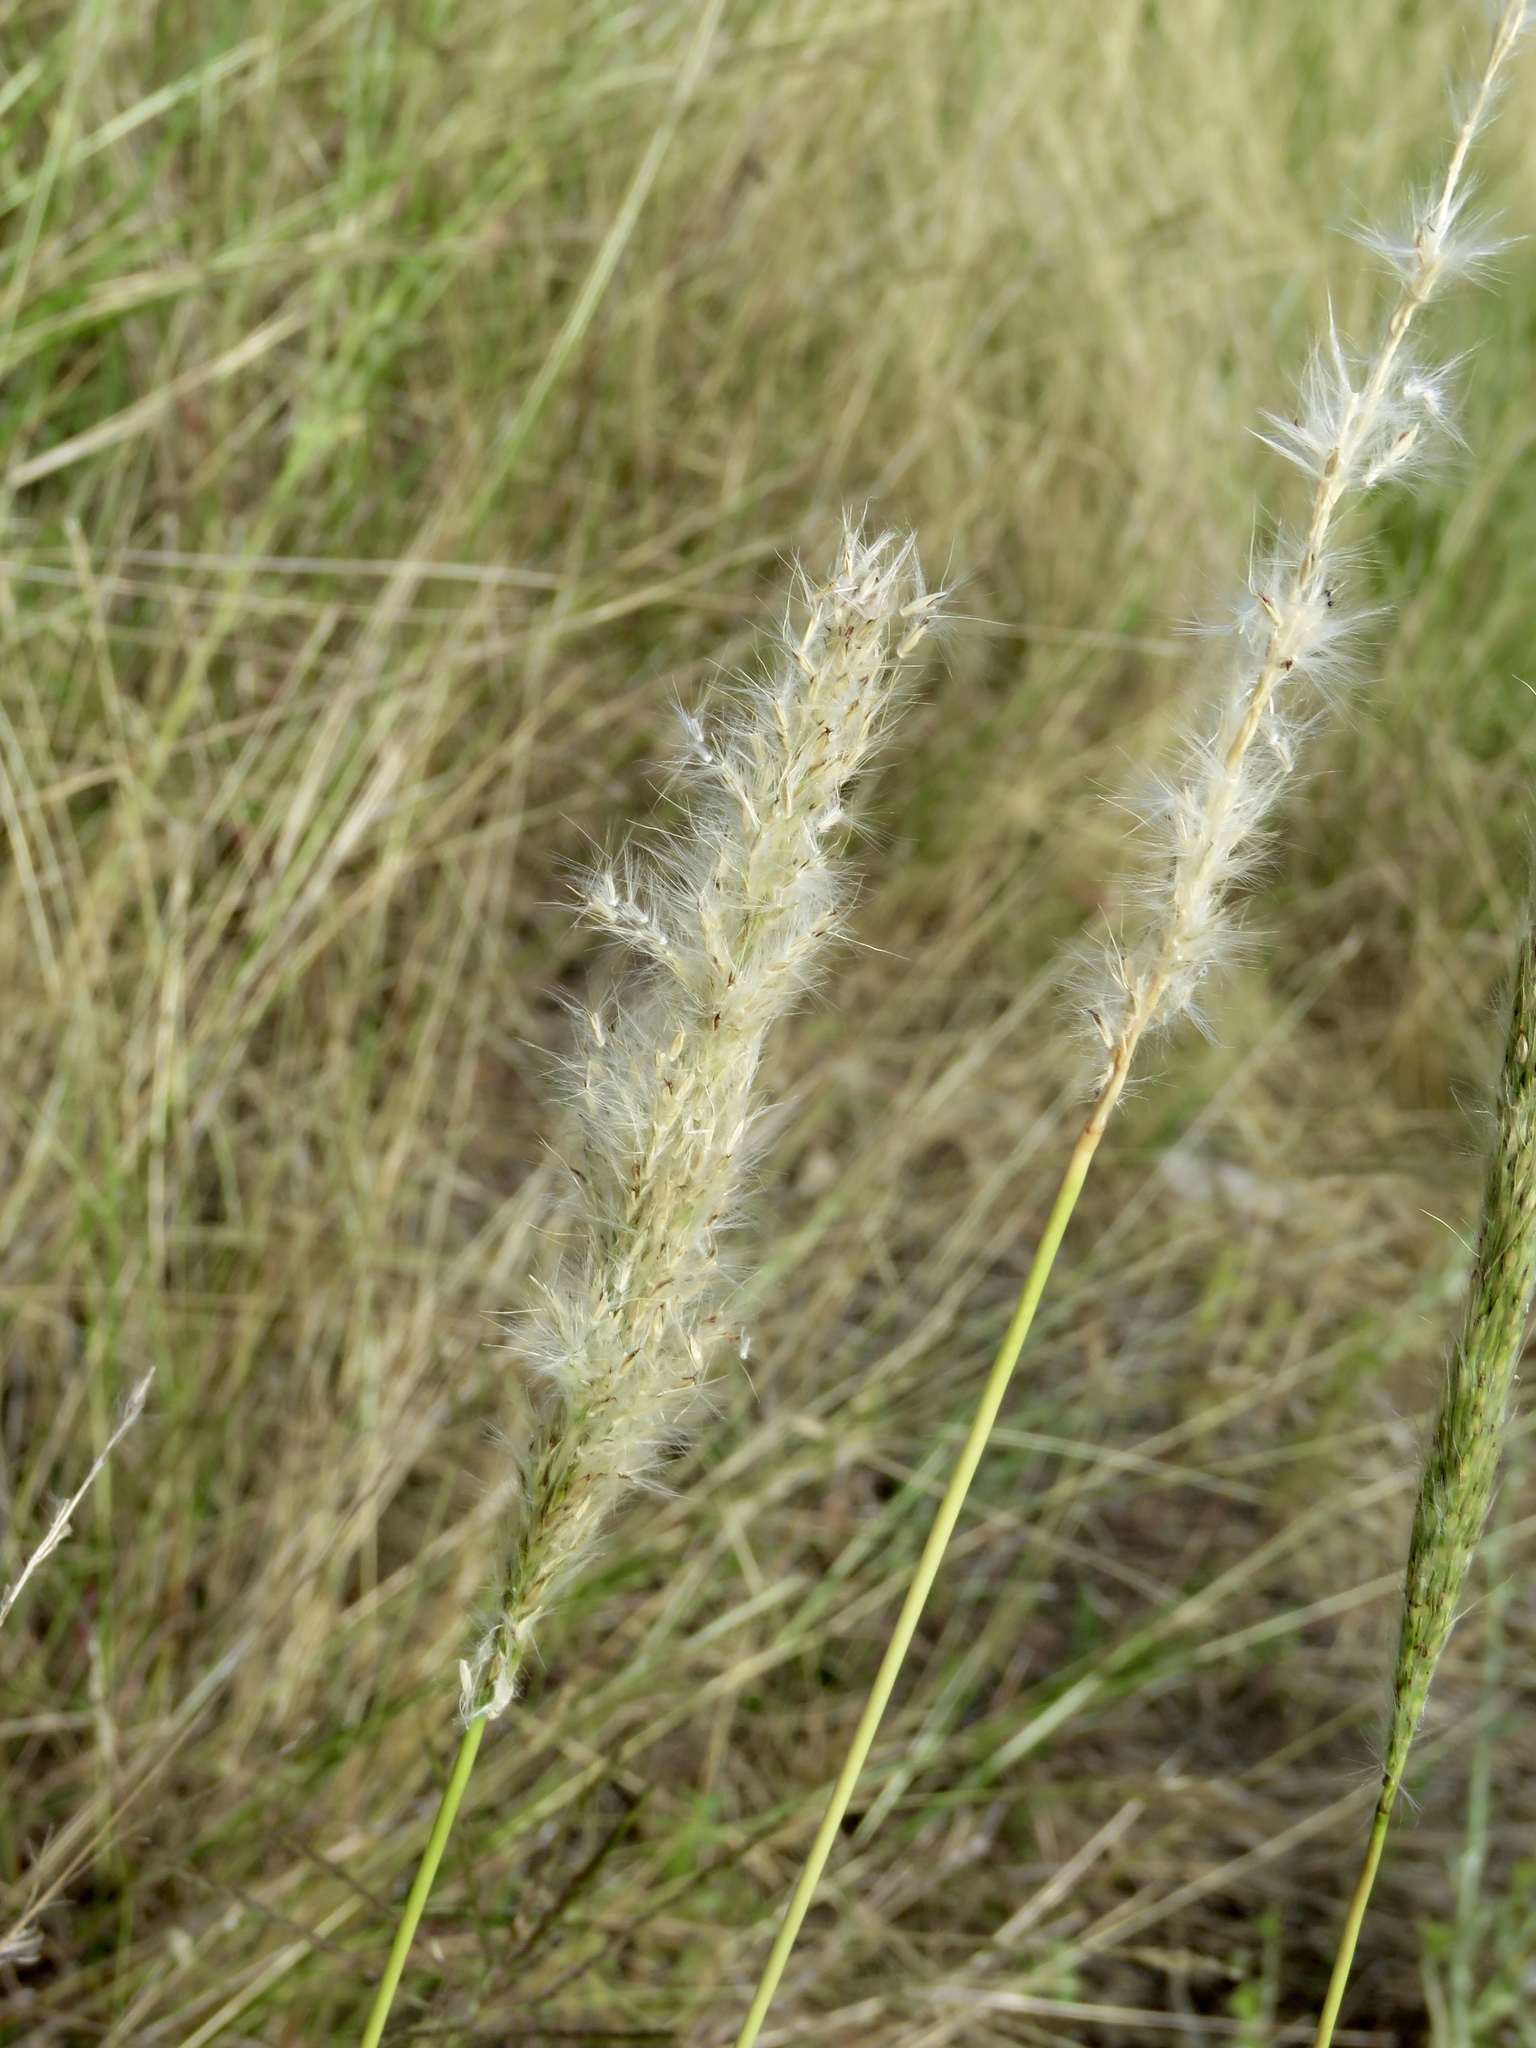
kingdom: Plantae
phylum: Tracheophyta
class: Liliopsida
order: Poales
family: Poaceae
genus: Bothriochloa
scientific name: Bothriochloa torreyana
